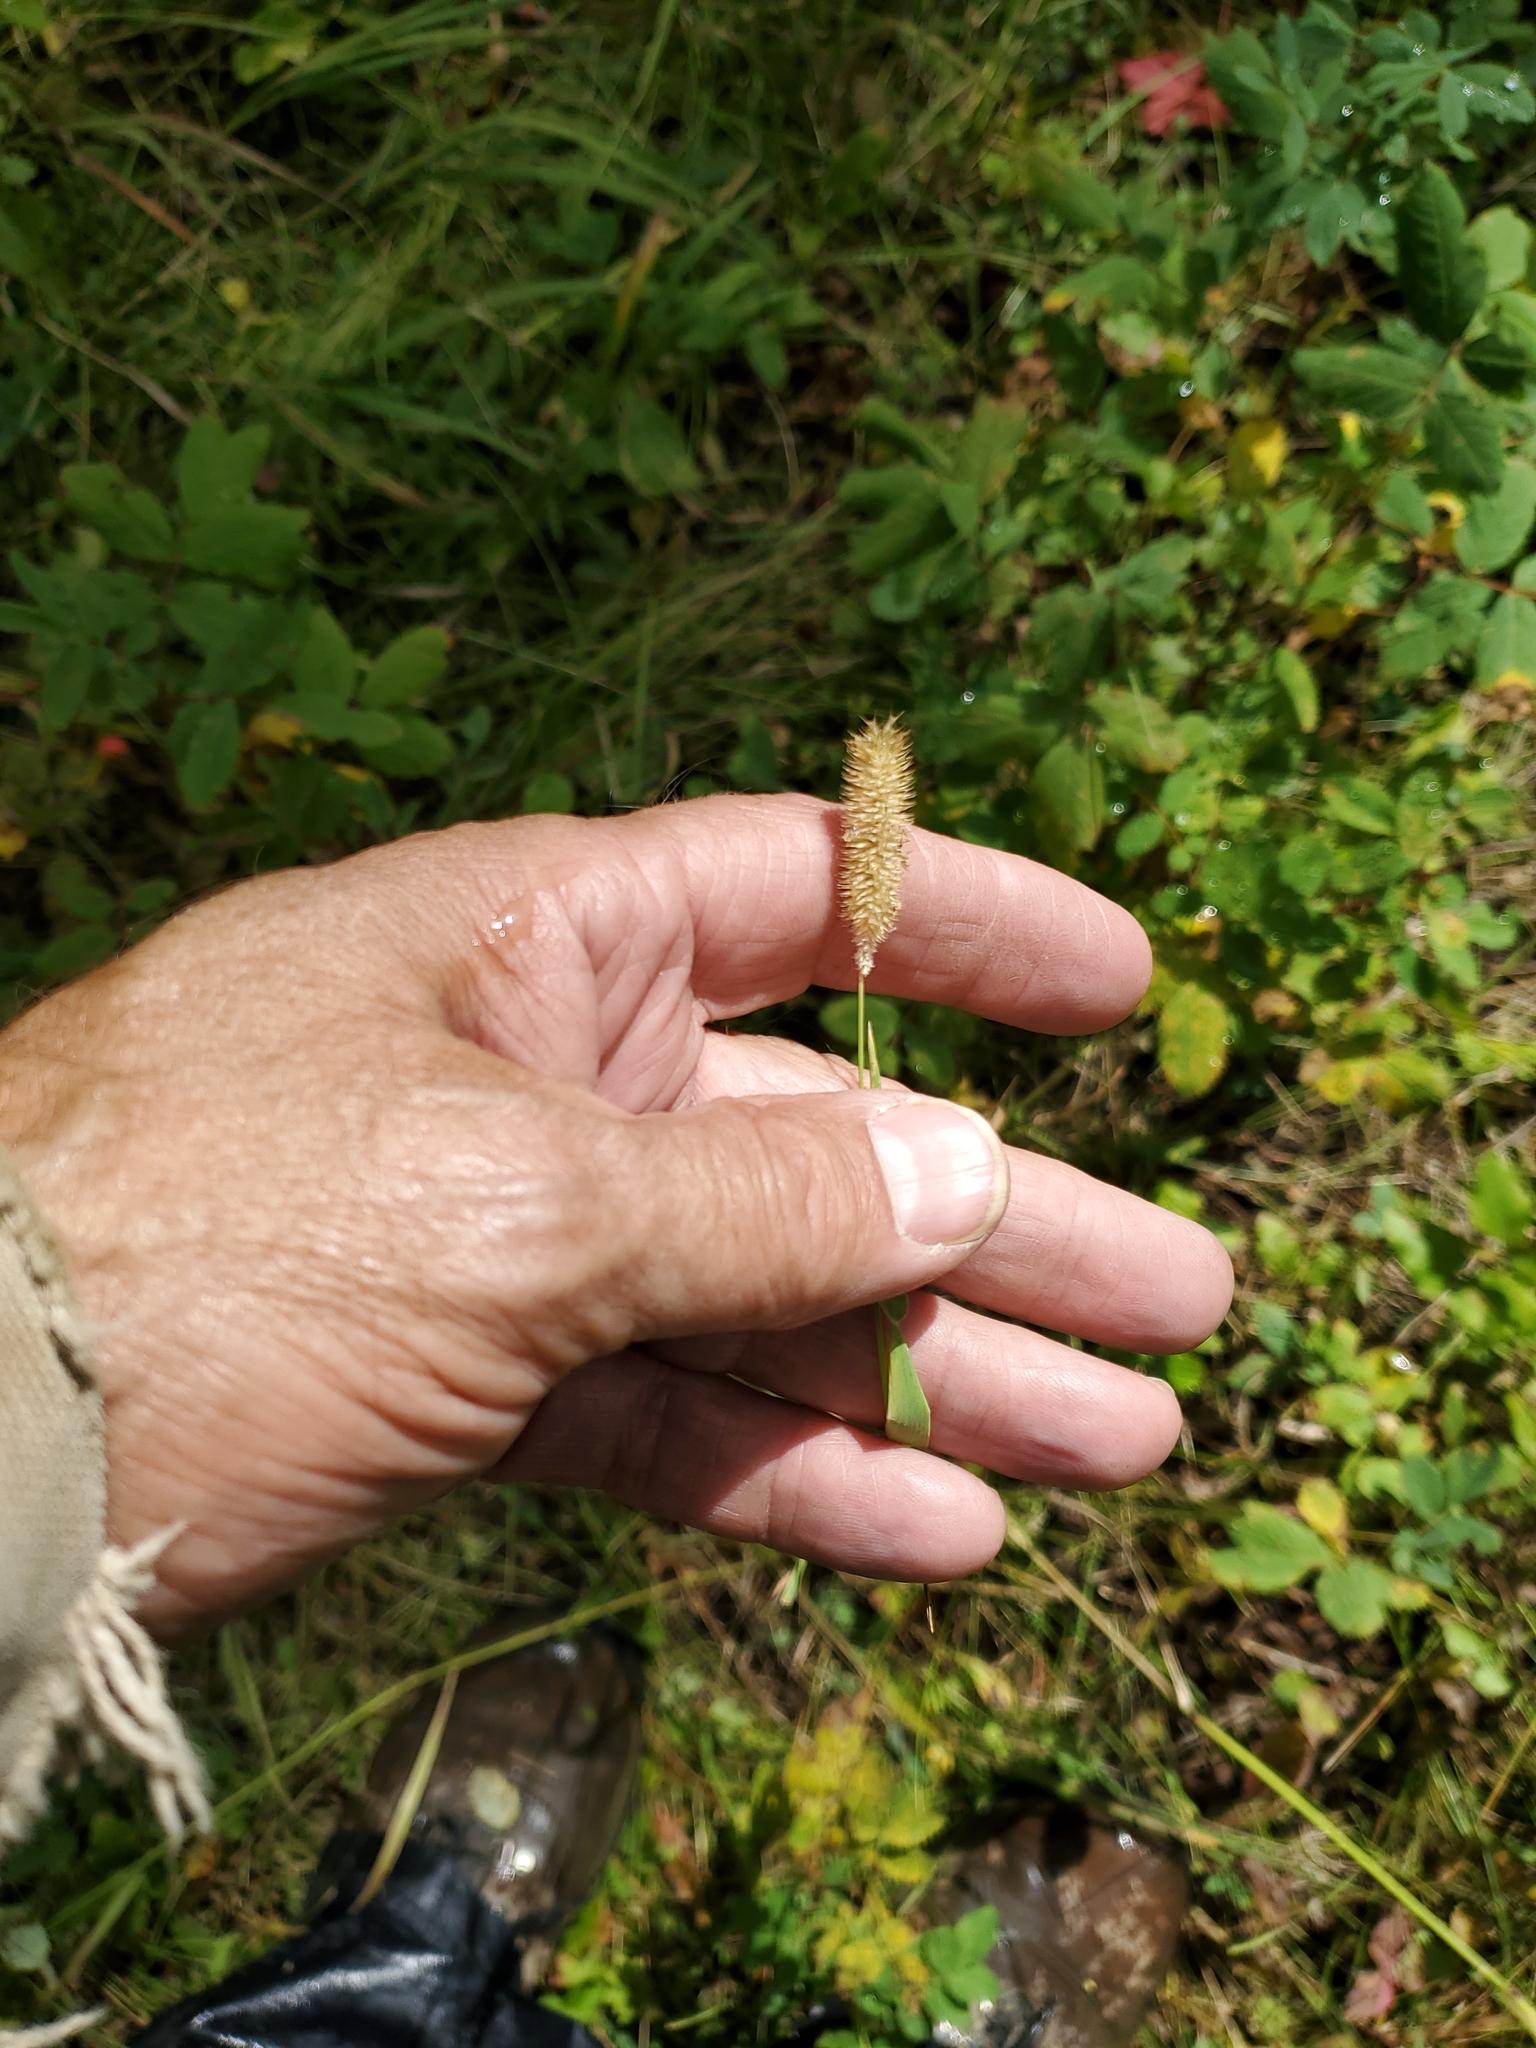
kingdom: Plantae
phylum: Tracheophyta
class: Liliopsida
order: Poales
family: Poaceae
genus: Phleum
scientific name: Phleum pratense
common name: Timothy grass
